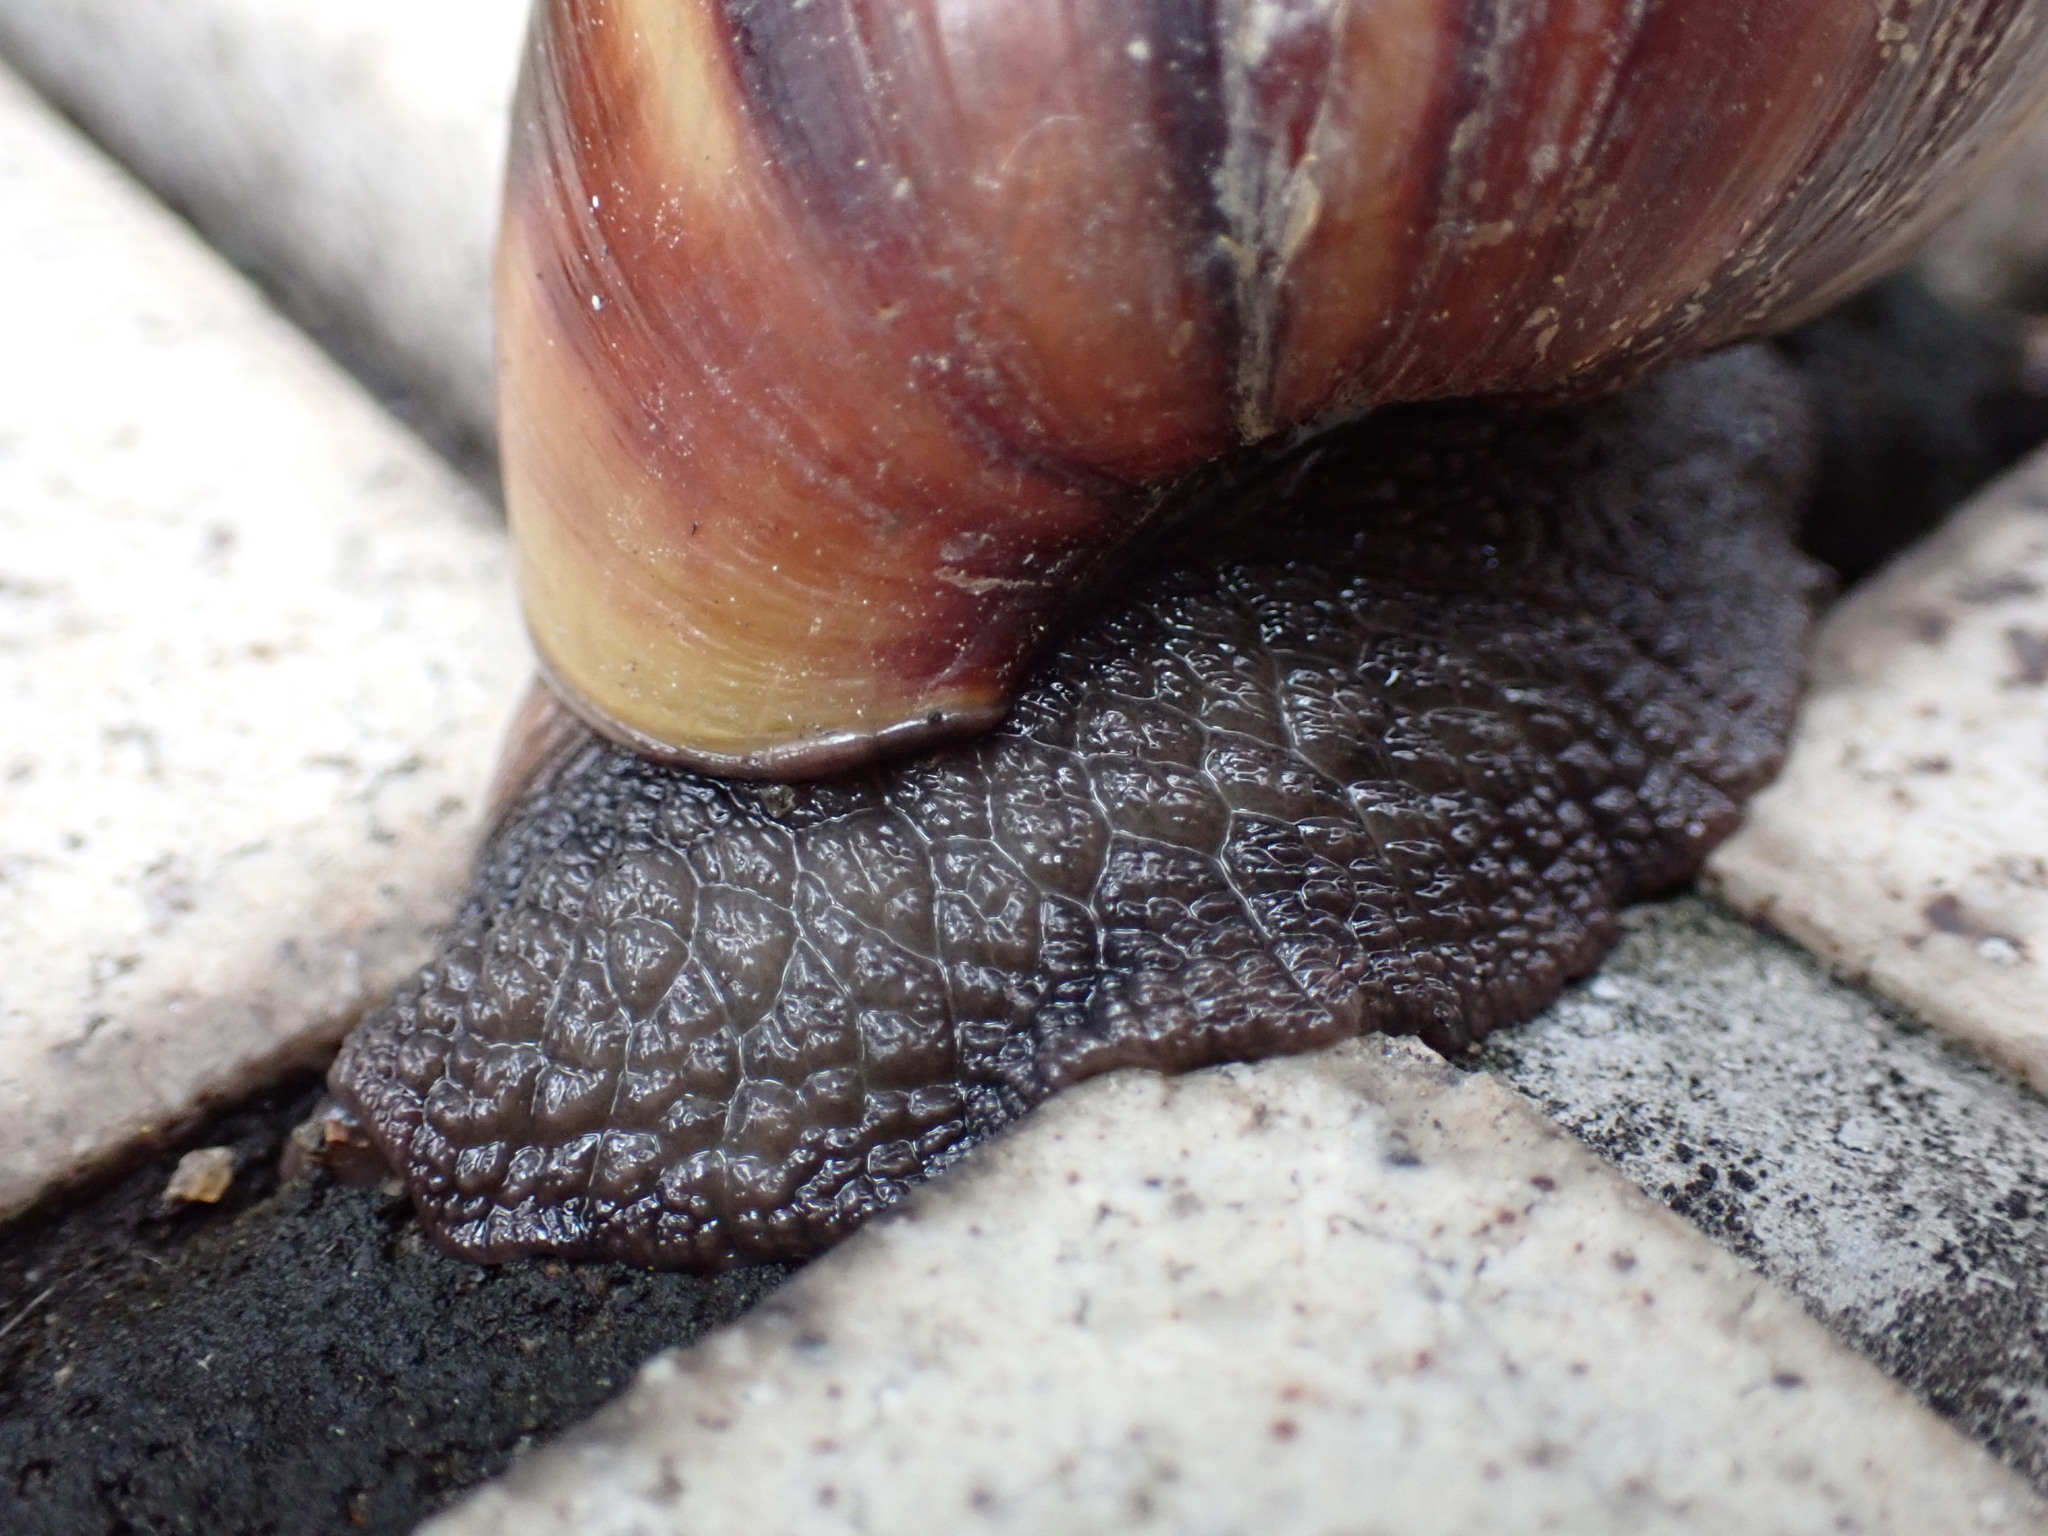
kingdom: Animalia
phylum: Mollusca
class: Gastropoda
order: Stylommatophora
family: Achatinidae
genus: Lissachatina
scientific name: Lissachatina fulica
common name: Giant african snail
